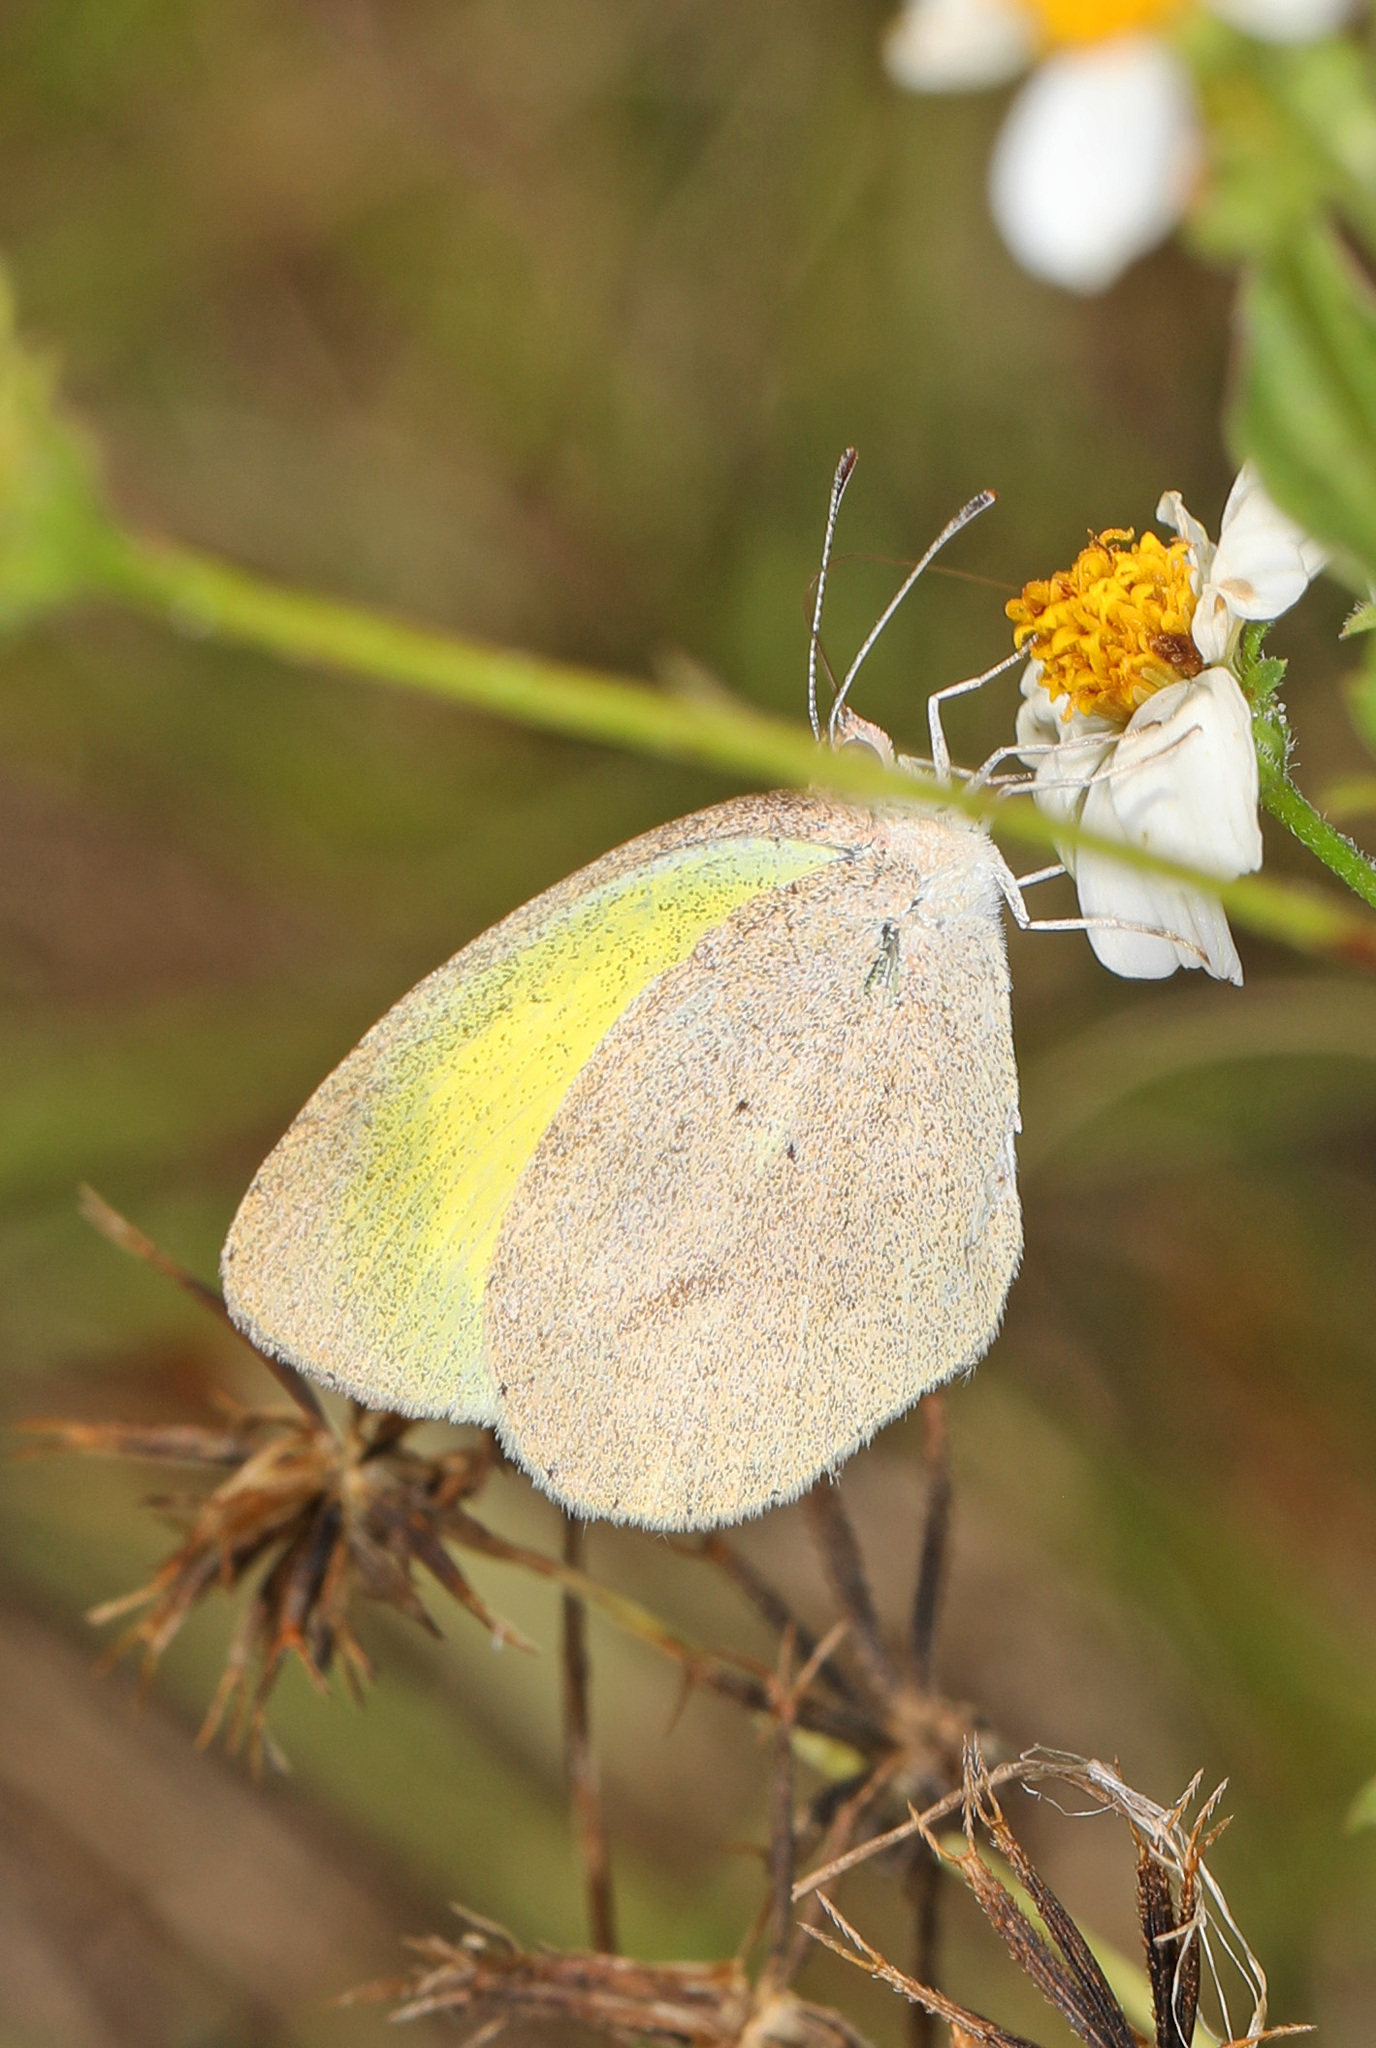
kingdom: Animalia
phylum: Arthropoda
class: Insecta
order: Lepidoptera
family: Pieridae
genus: Eurema
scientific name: Eurema daira
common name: Barred sulphur
